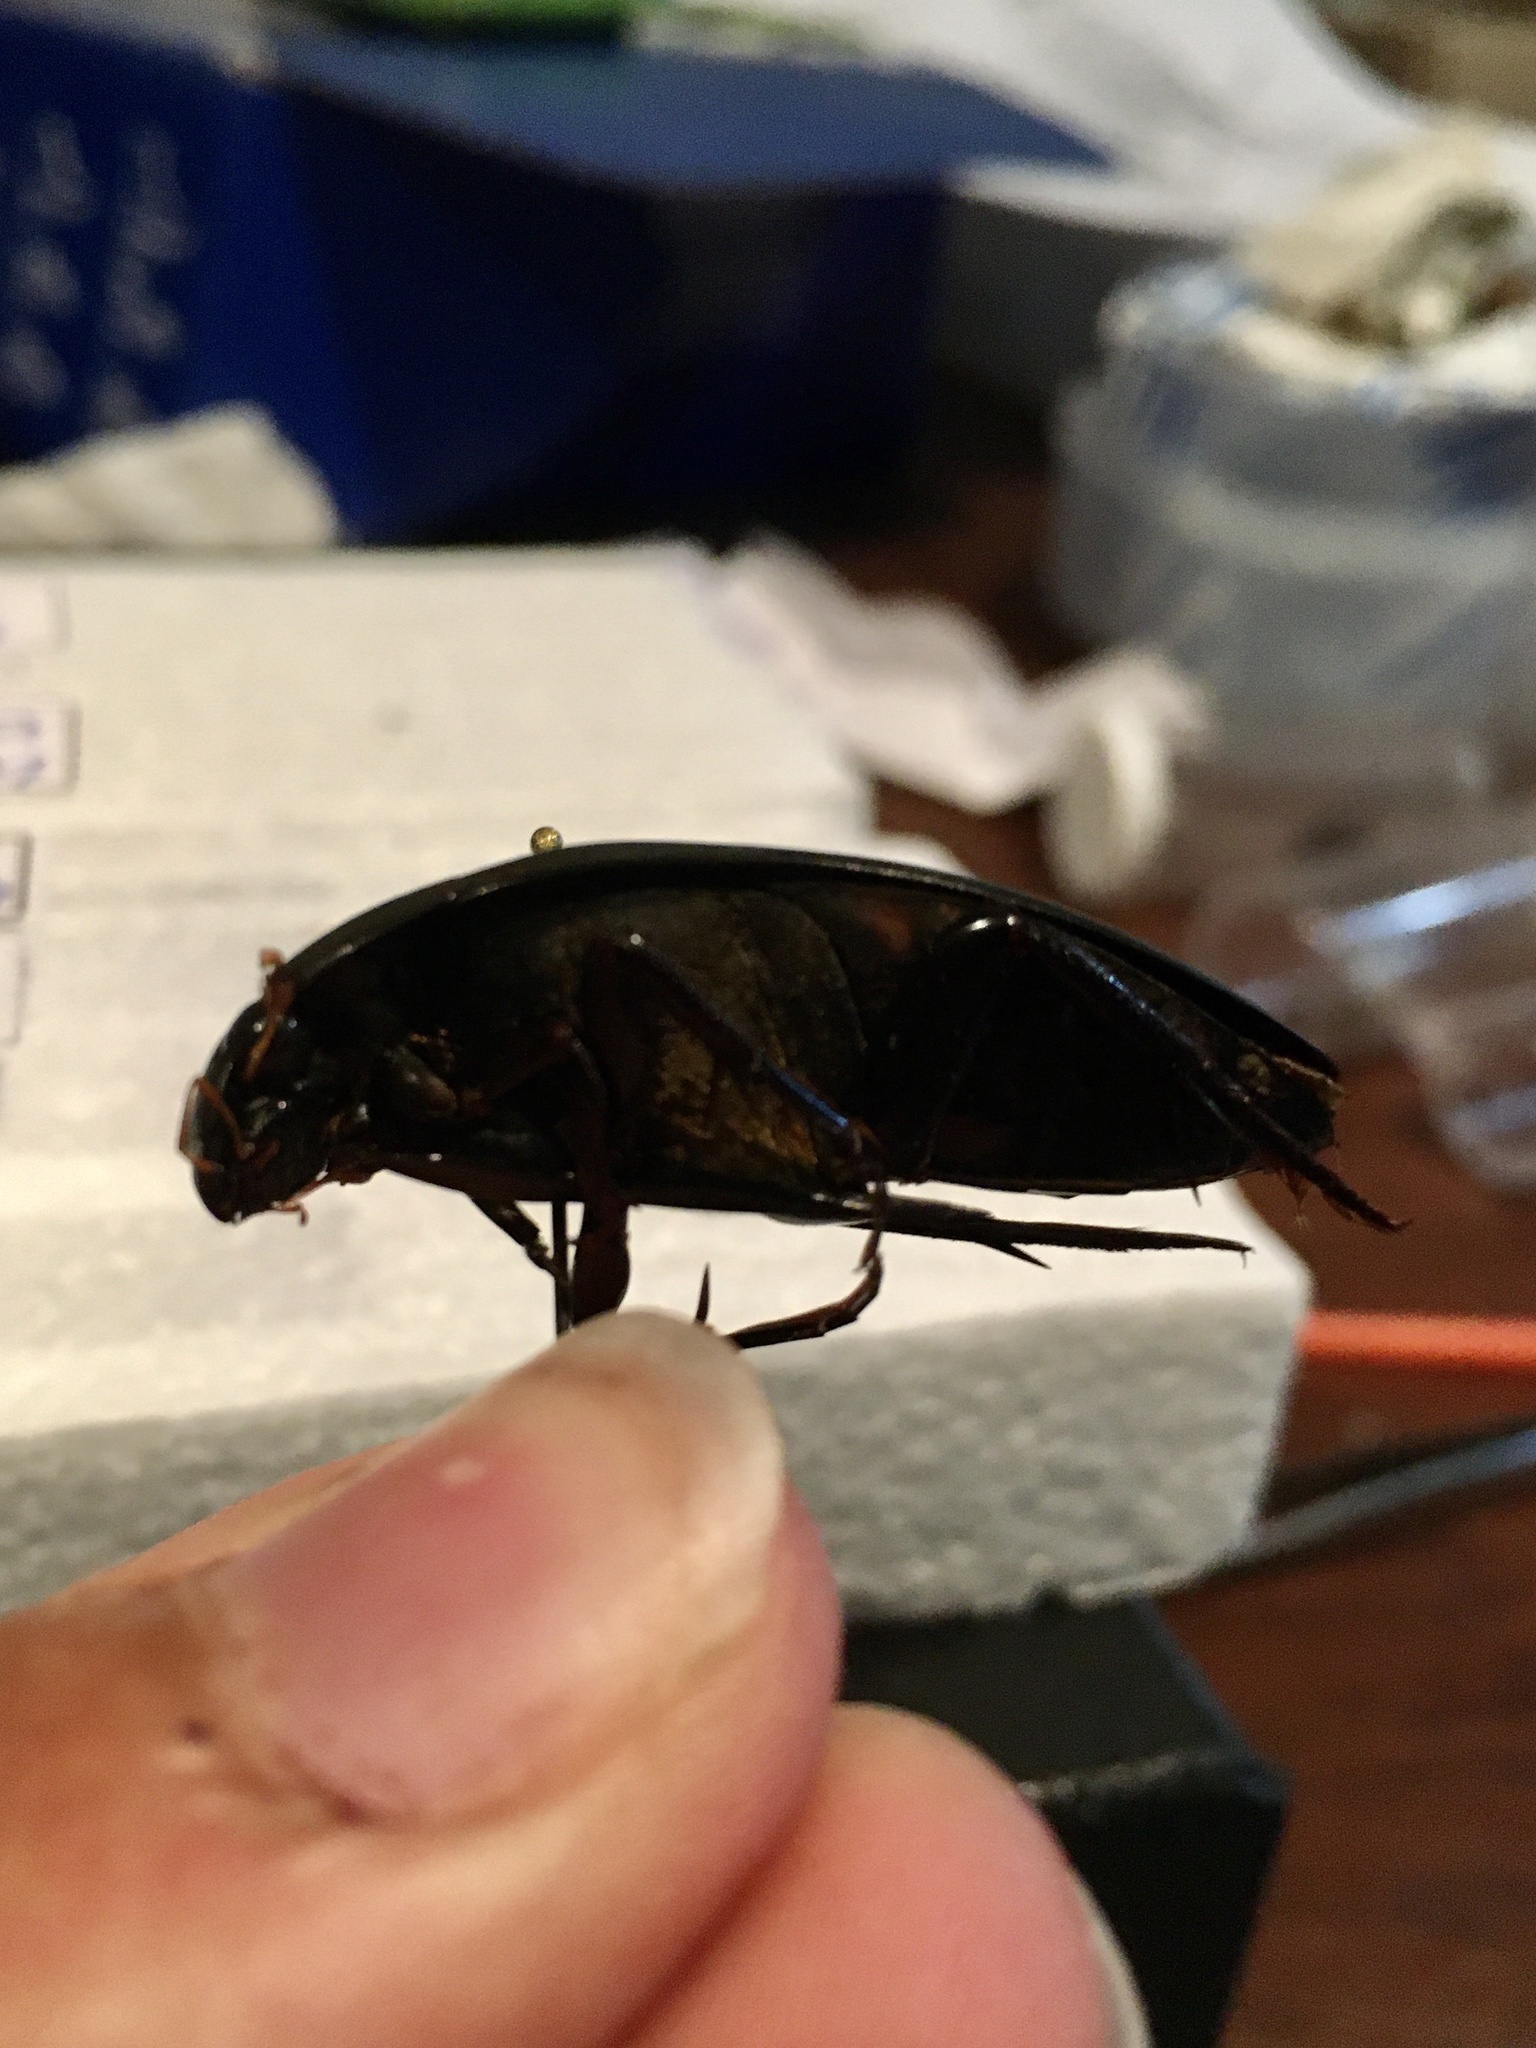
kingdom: Animalia
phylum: Arthropoda
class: Insecta
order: Coleoptera
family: Hydrophilidae
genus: Hydrophilus
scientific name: Hydrophilus triangularis
